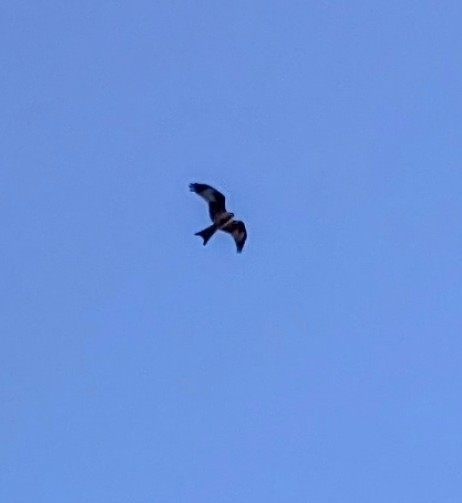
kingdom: Animalia
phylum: Chordata
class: Aves
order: Accipitriformes
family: Accipitridae
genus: Milvus
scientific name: Milvus milvus
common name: Red kite
